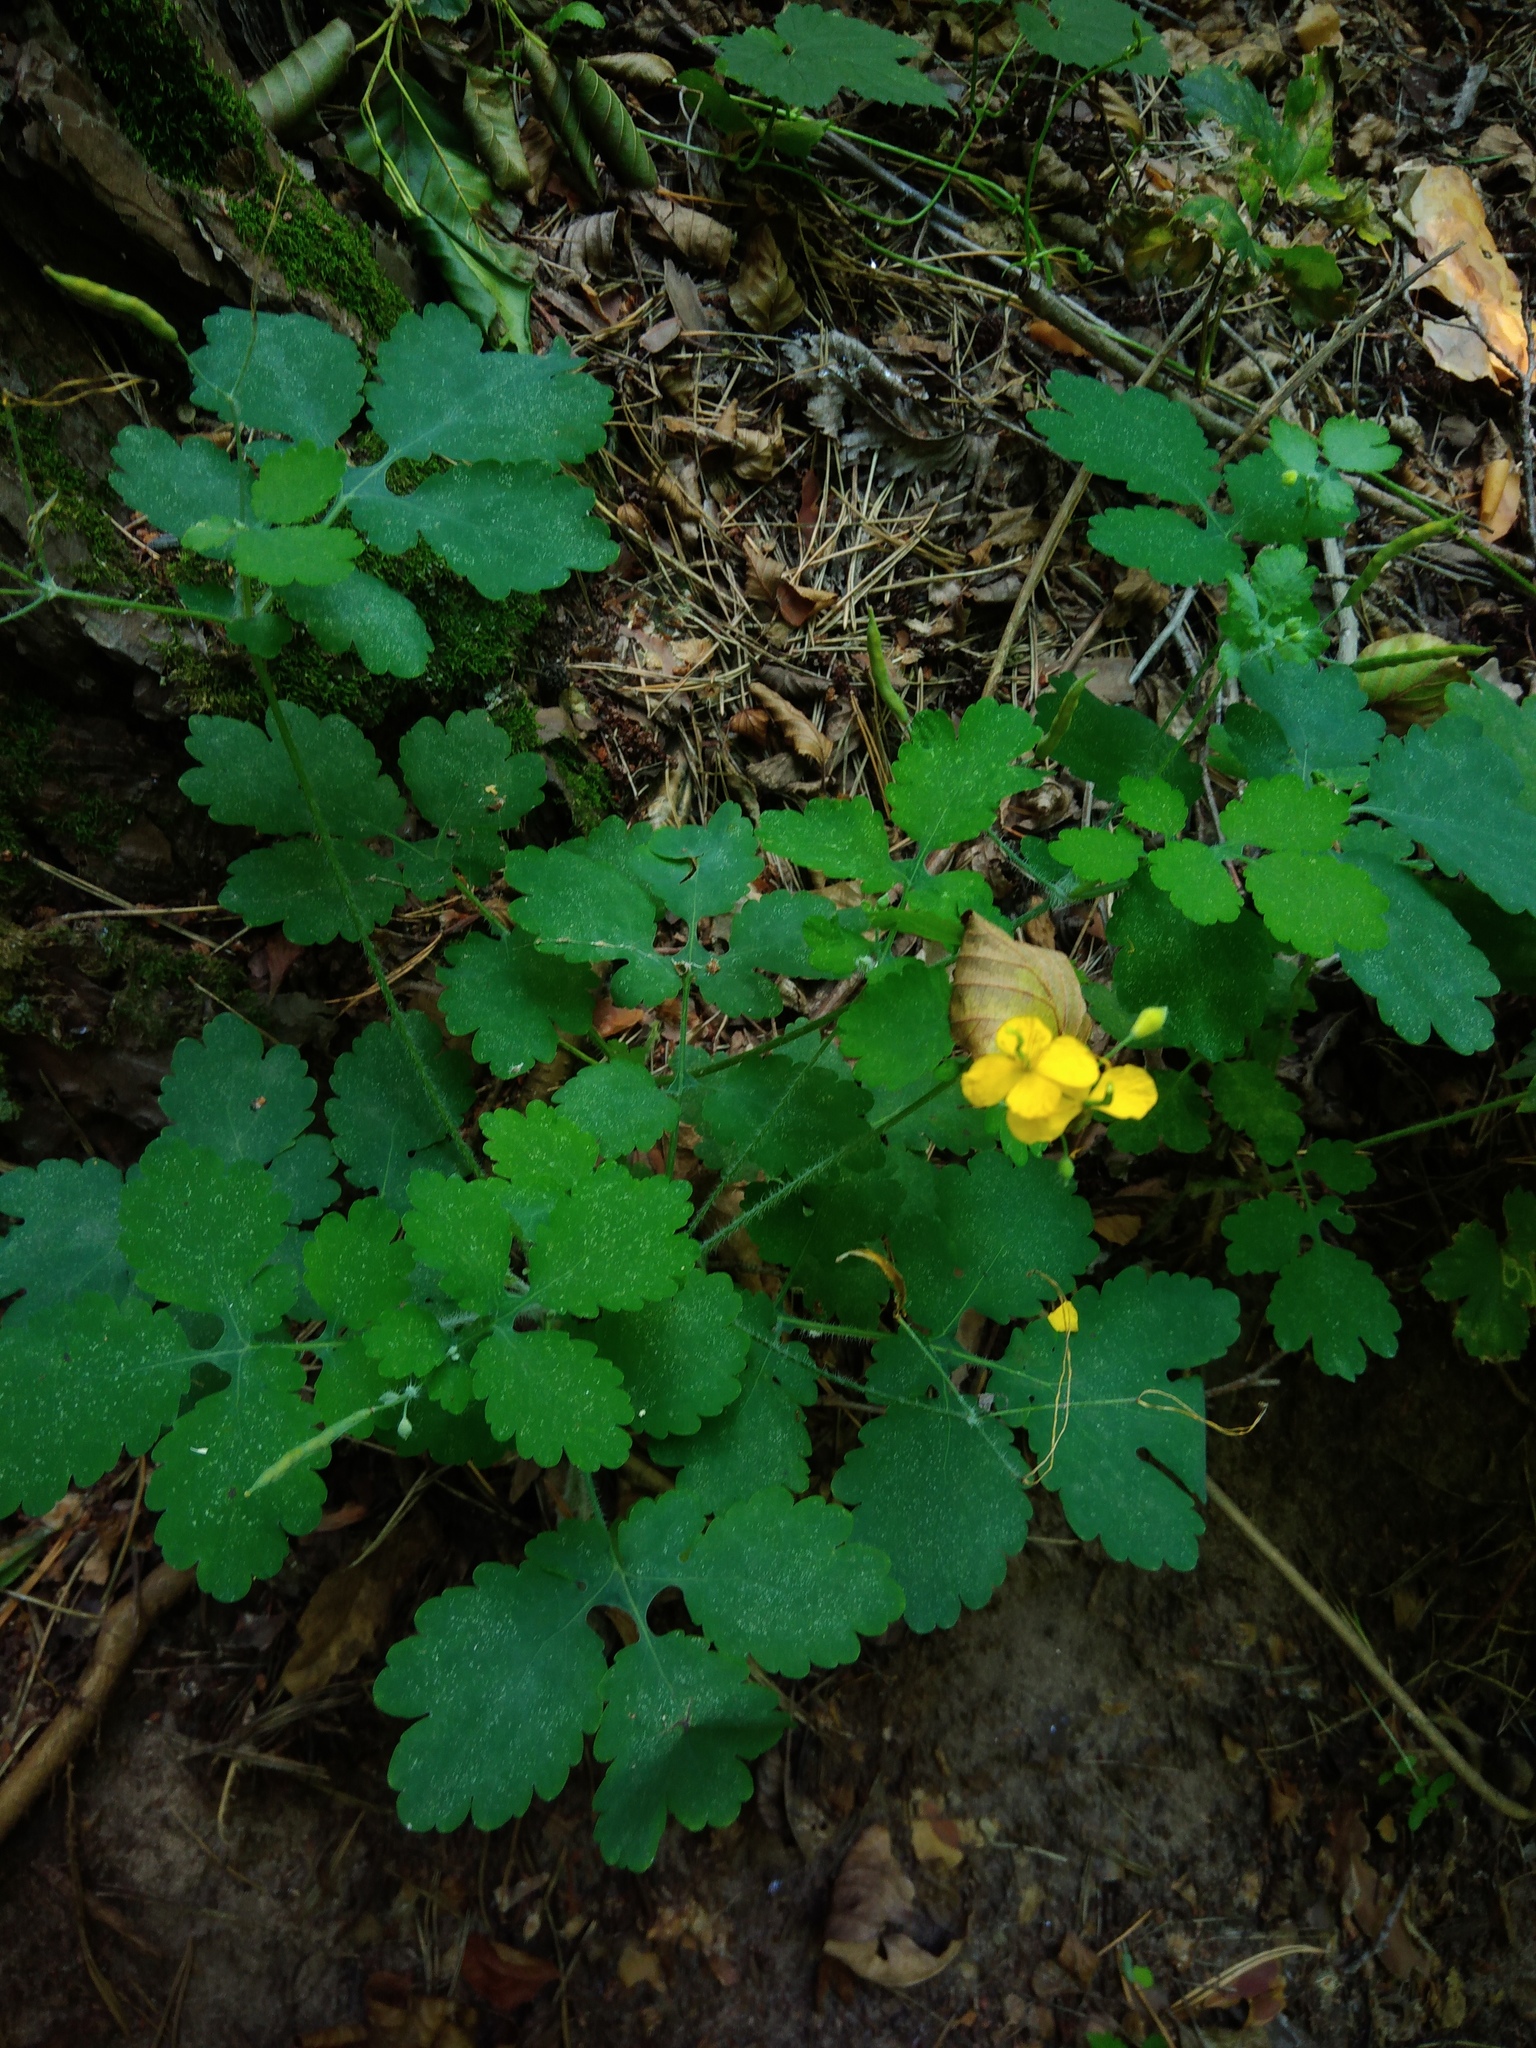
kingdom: Plantae
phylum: Tracheophyta
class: Magnoliopsida
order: Ranunculales
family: Papaveraceae
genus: Chelidonium
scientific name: Chelidonium majus
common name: Greater celandine
